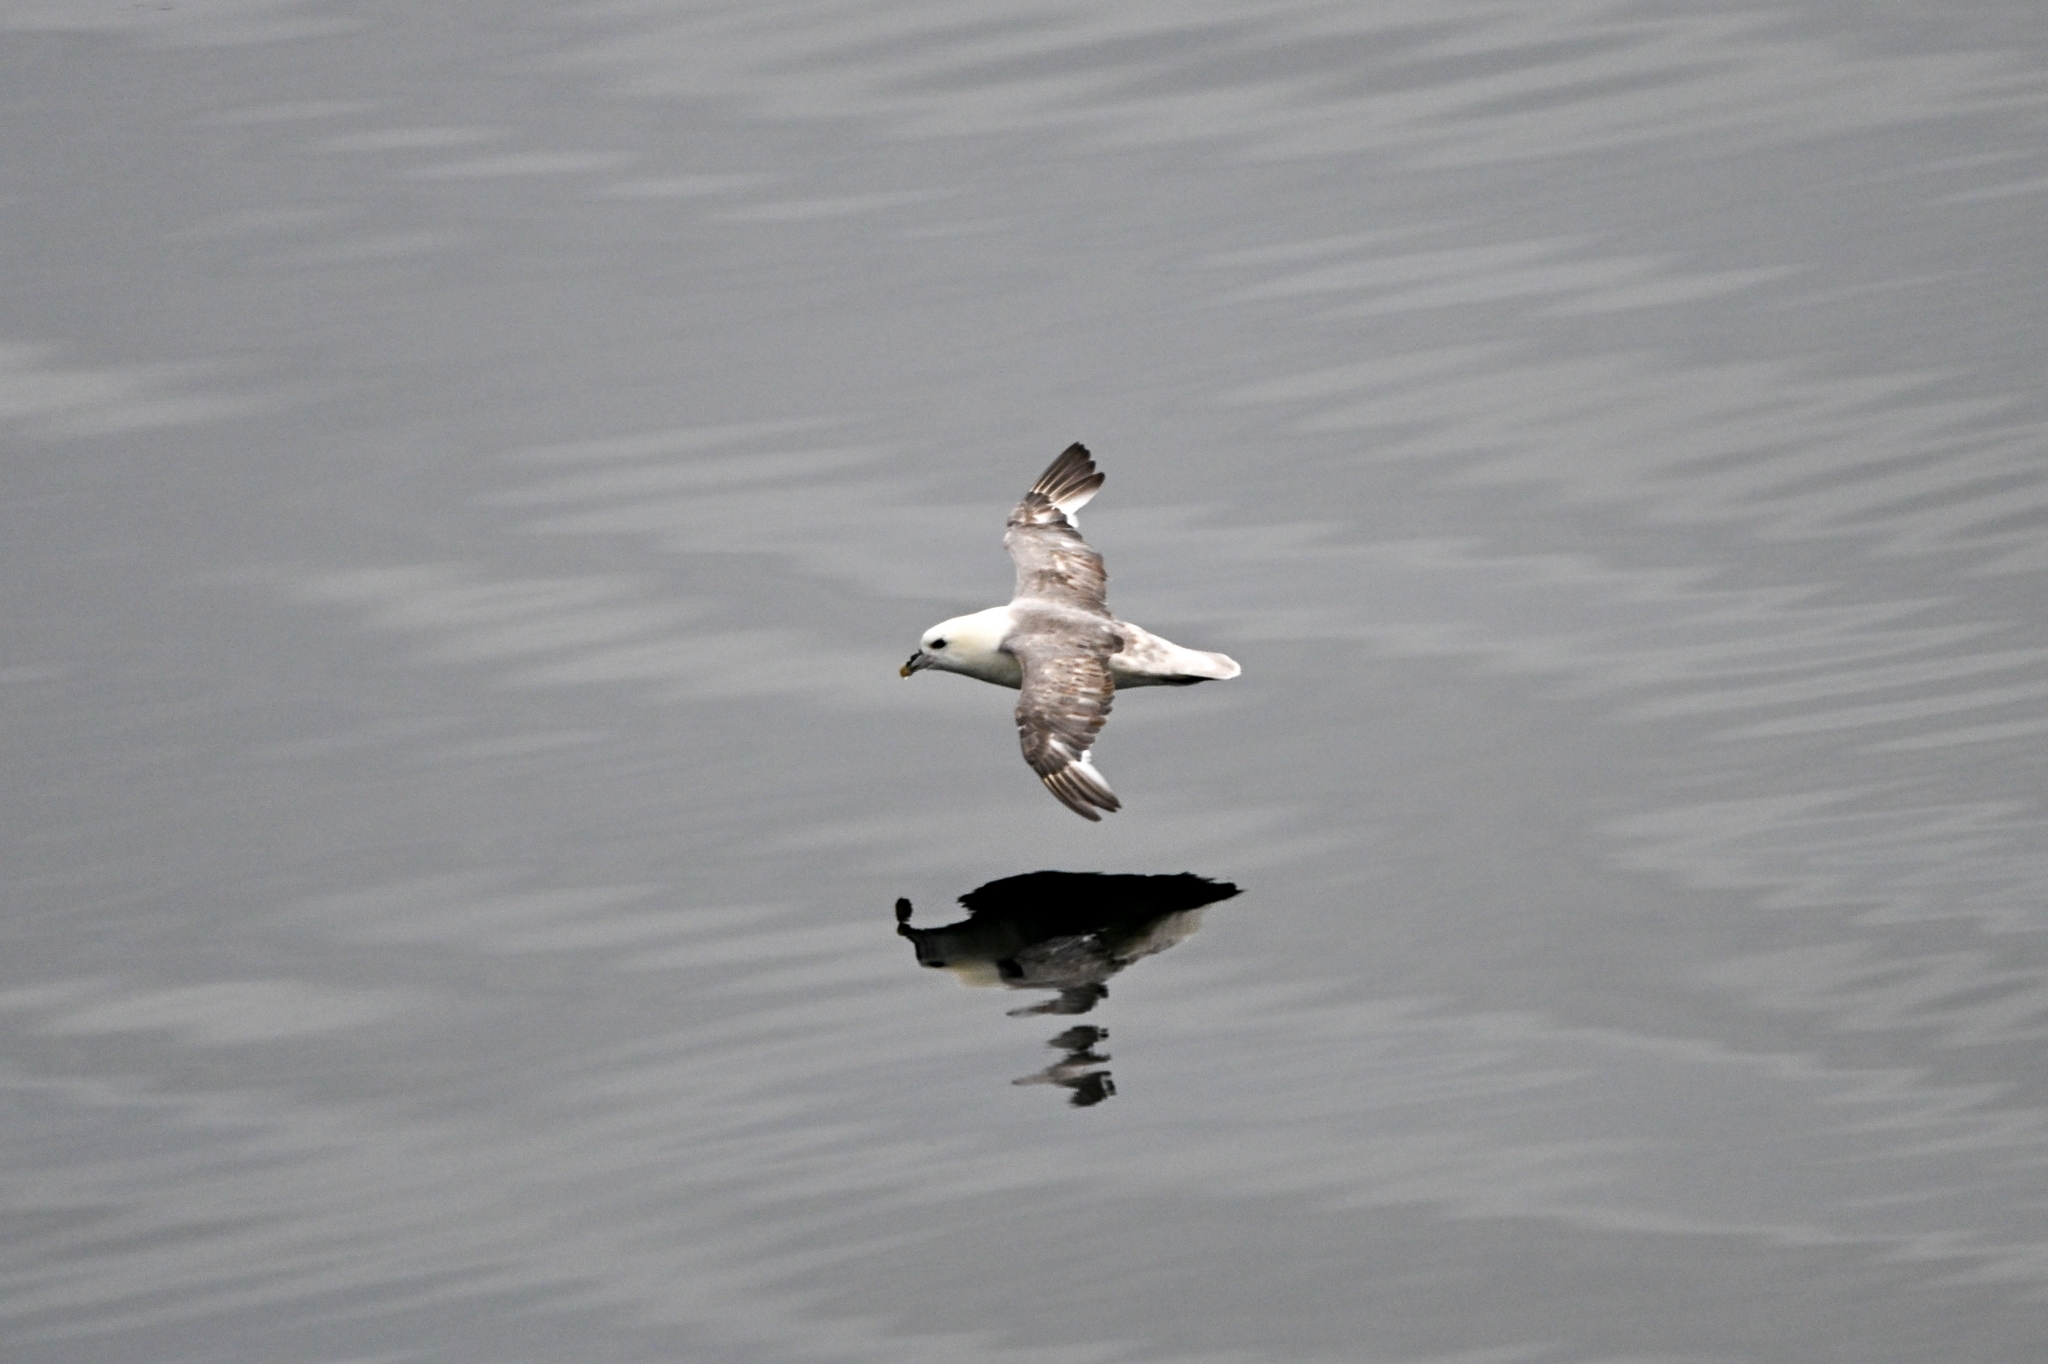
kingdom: Animalia
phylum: Chordata
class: Aves
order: Procellariiformes
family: Procellariidae
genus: Fulmarus
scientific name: Fulmarus glacialis
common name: Northern fulmar
